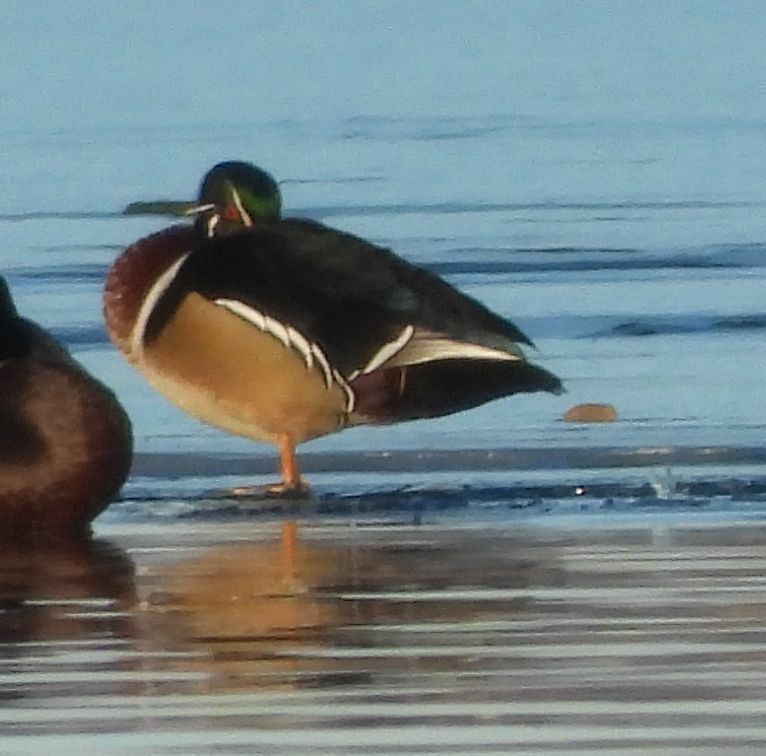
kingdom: Animalia
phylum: Chordata
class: Aves
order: Anseriformes
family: Anatidae
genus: Aix
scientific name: Aix sponsa
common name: Wood duck
